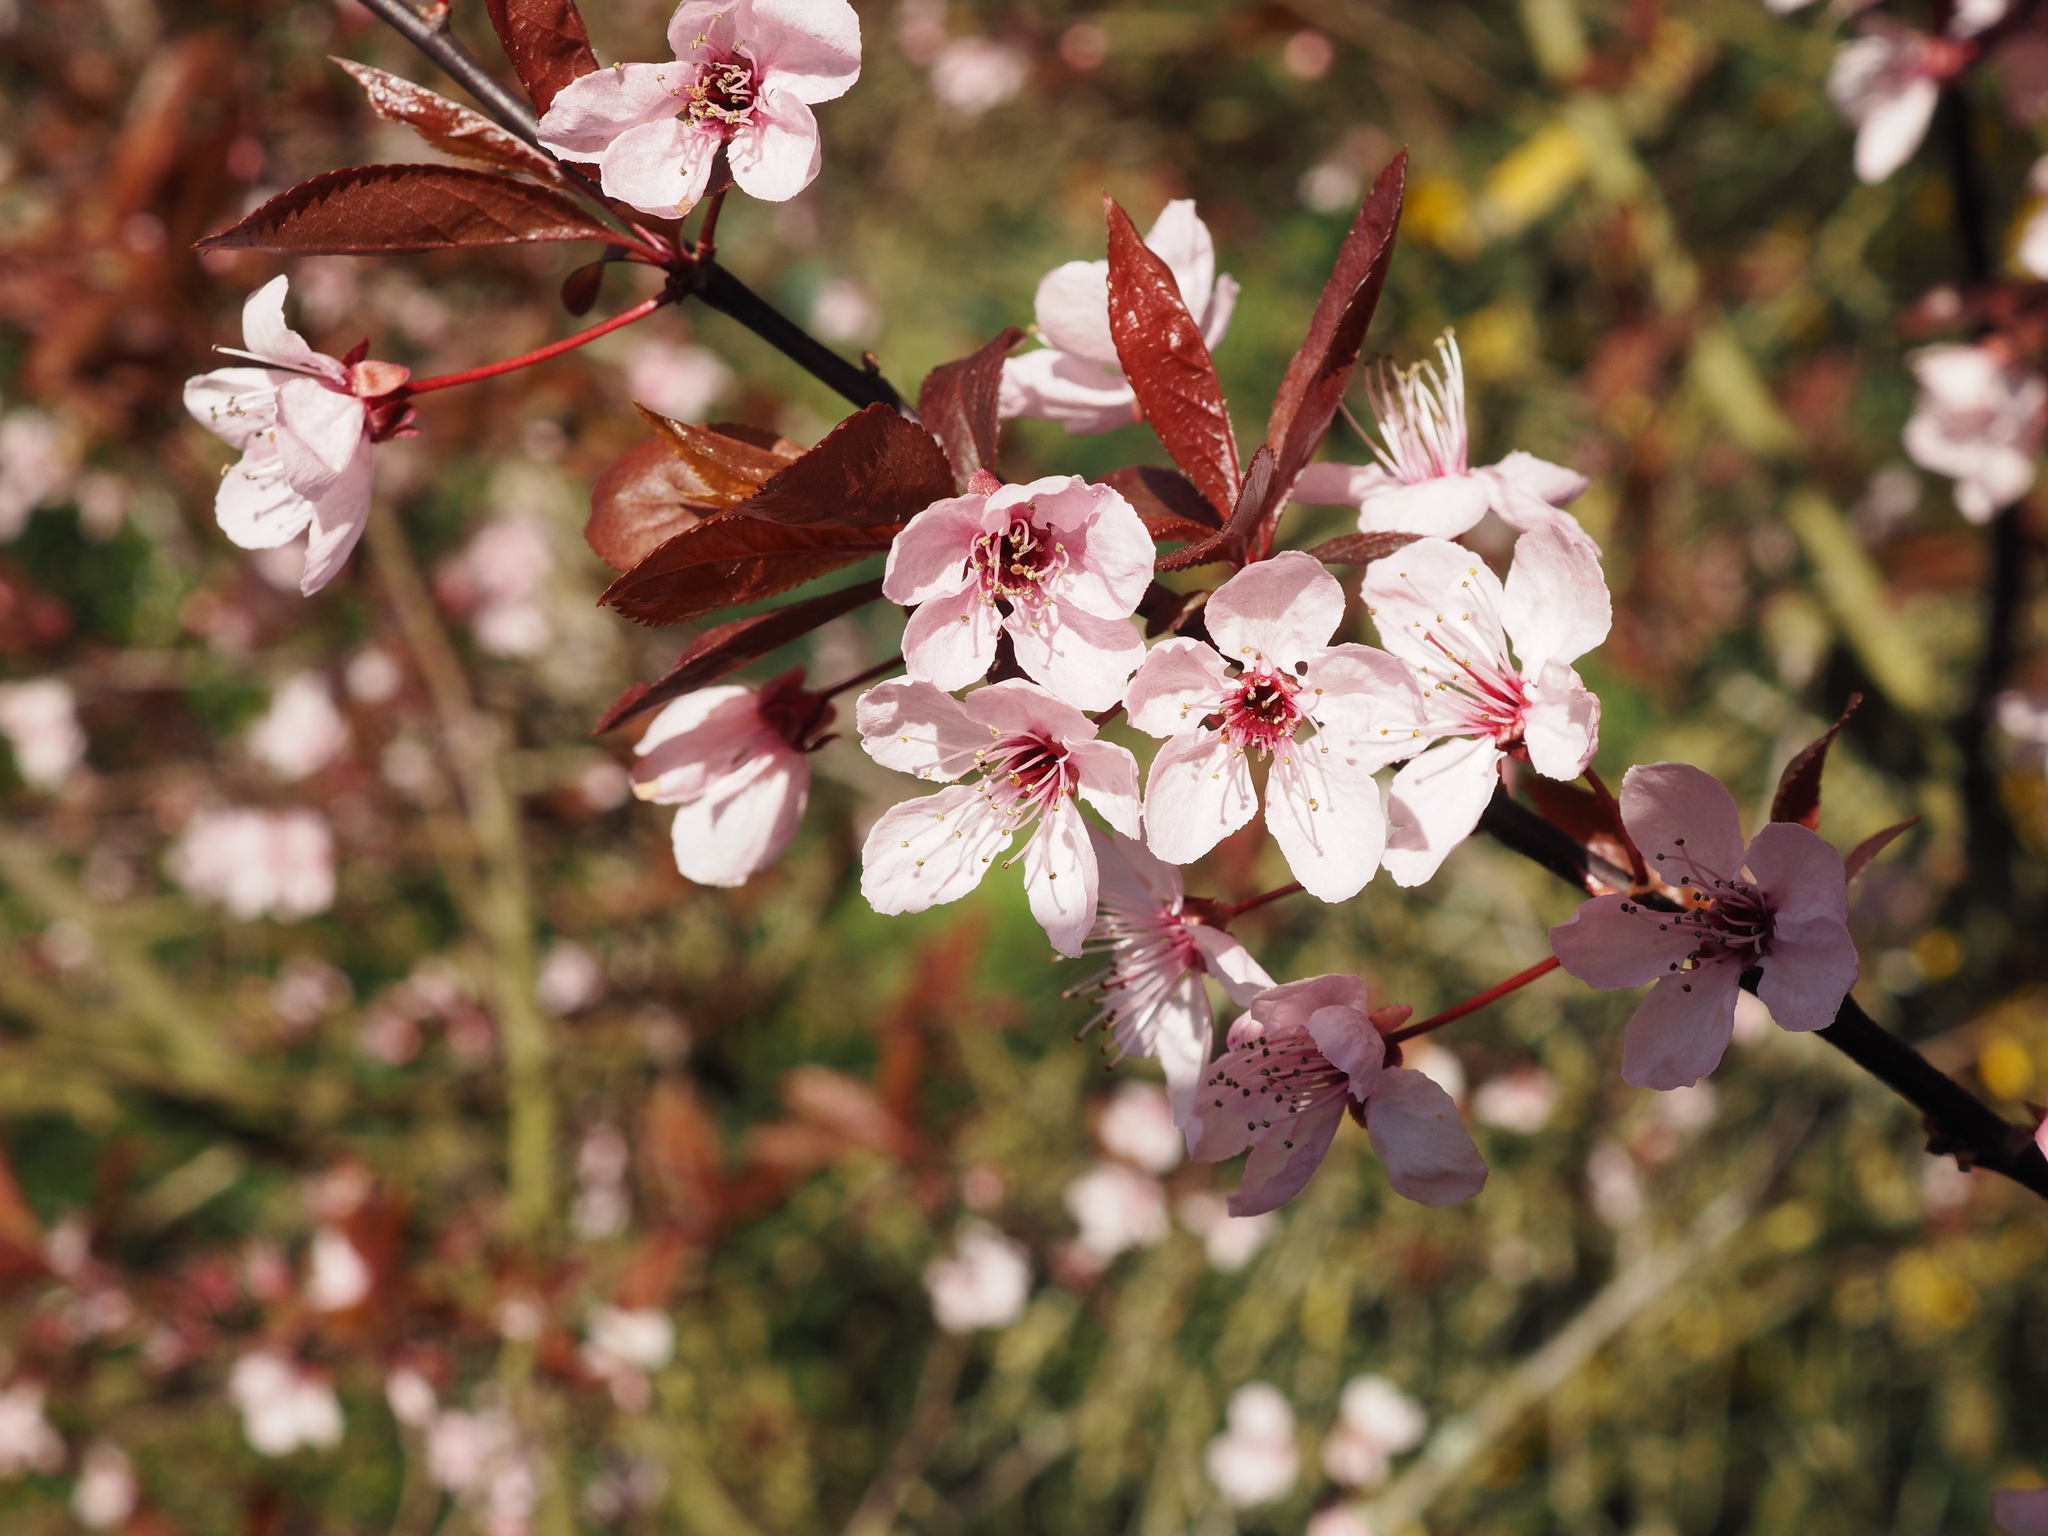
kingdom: Plantae
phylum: Tracheophyta
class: Magnoliopsida
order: Rosales
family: Rosaceae
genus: Prunus
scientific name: Prunus cerasifera
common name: Cherry plum
